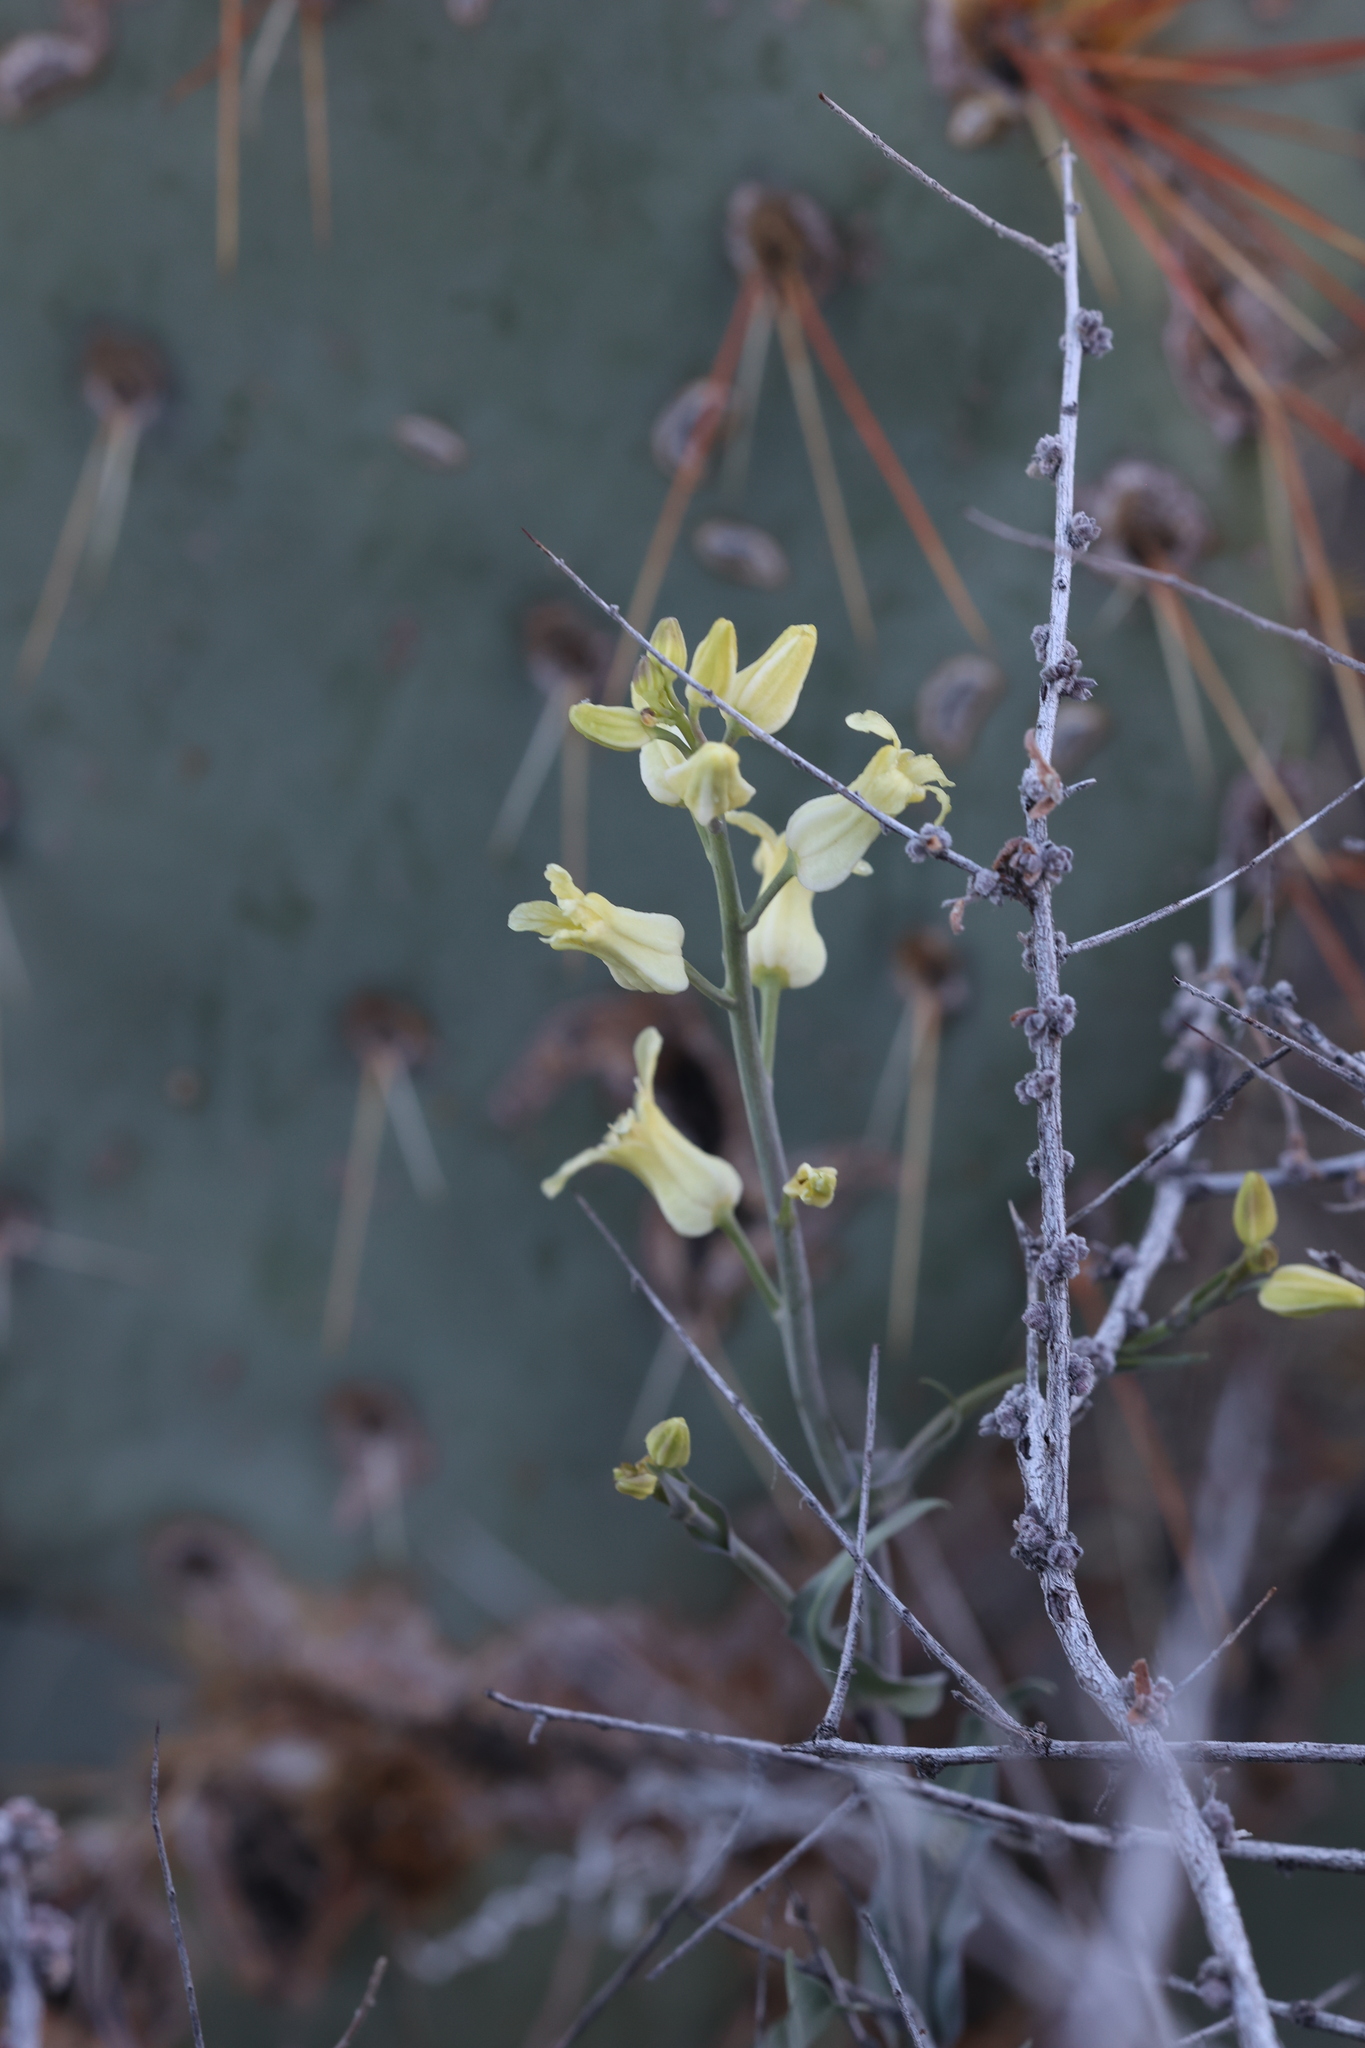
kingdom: Plantae
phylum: Tracheophyta
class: Magnoliopsida
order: Brassicales
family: Brassicaceae
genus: Streptanthus
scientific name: Streptanthus carinatus
